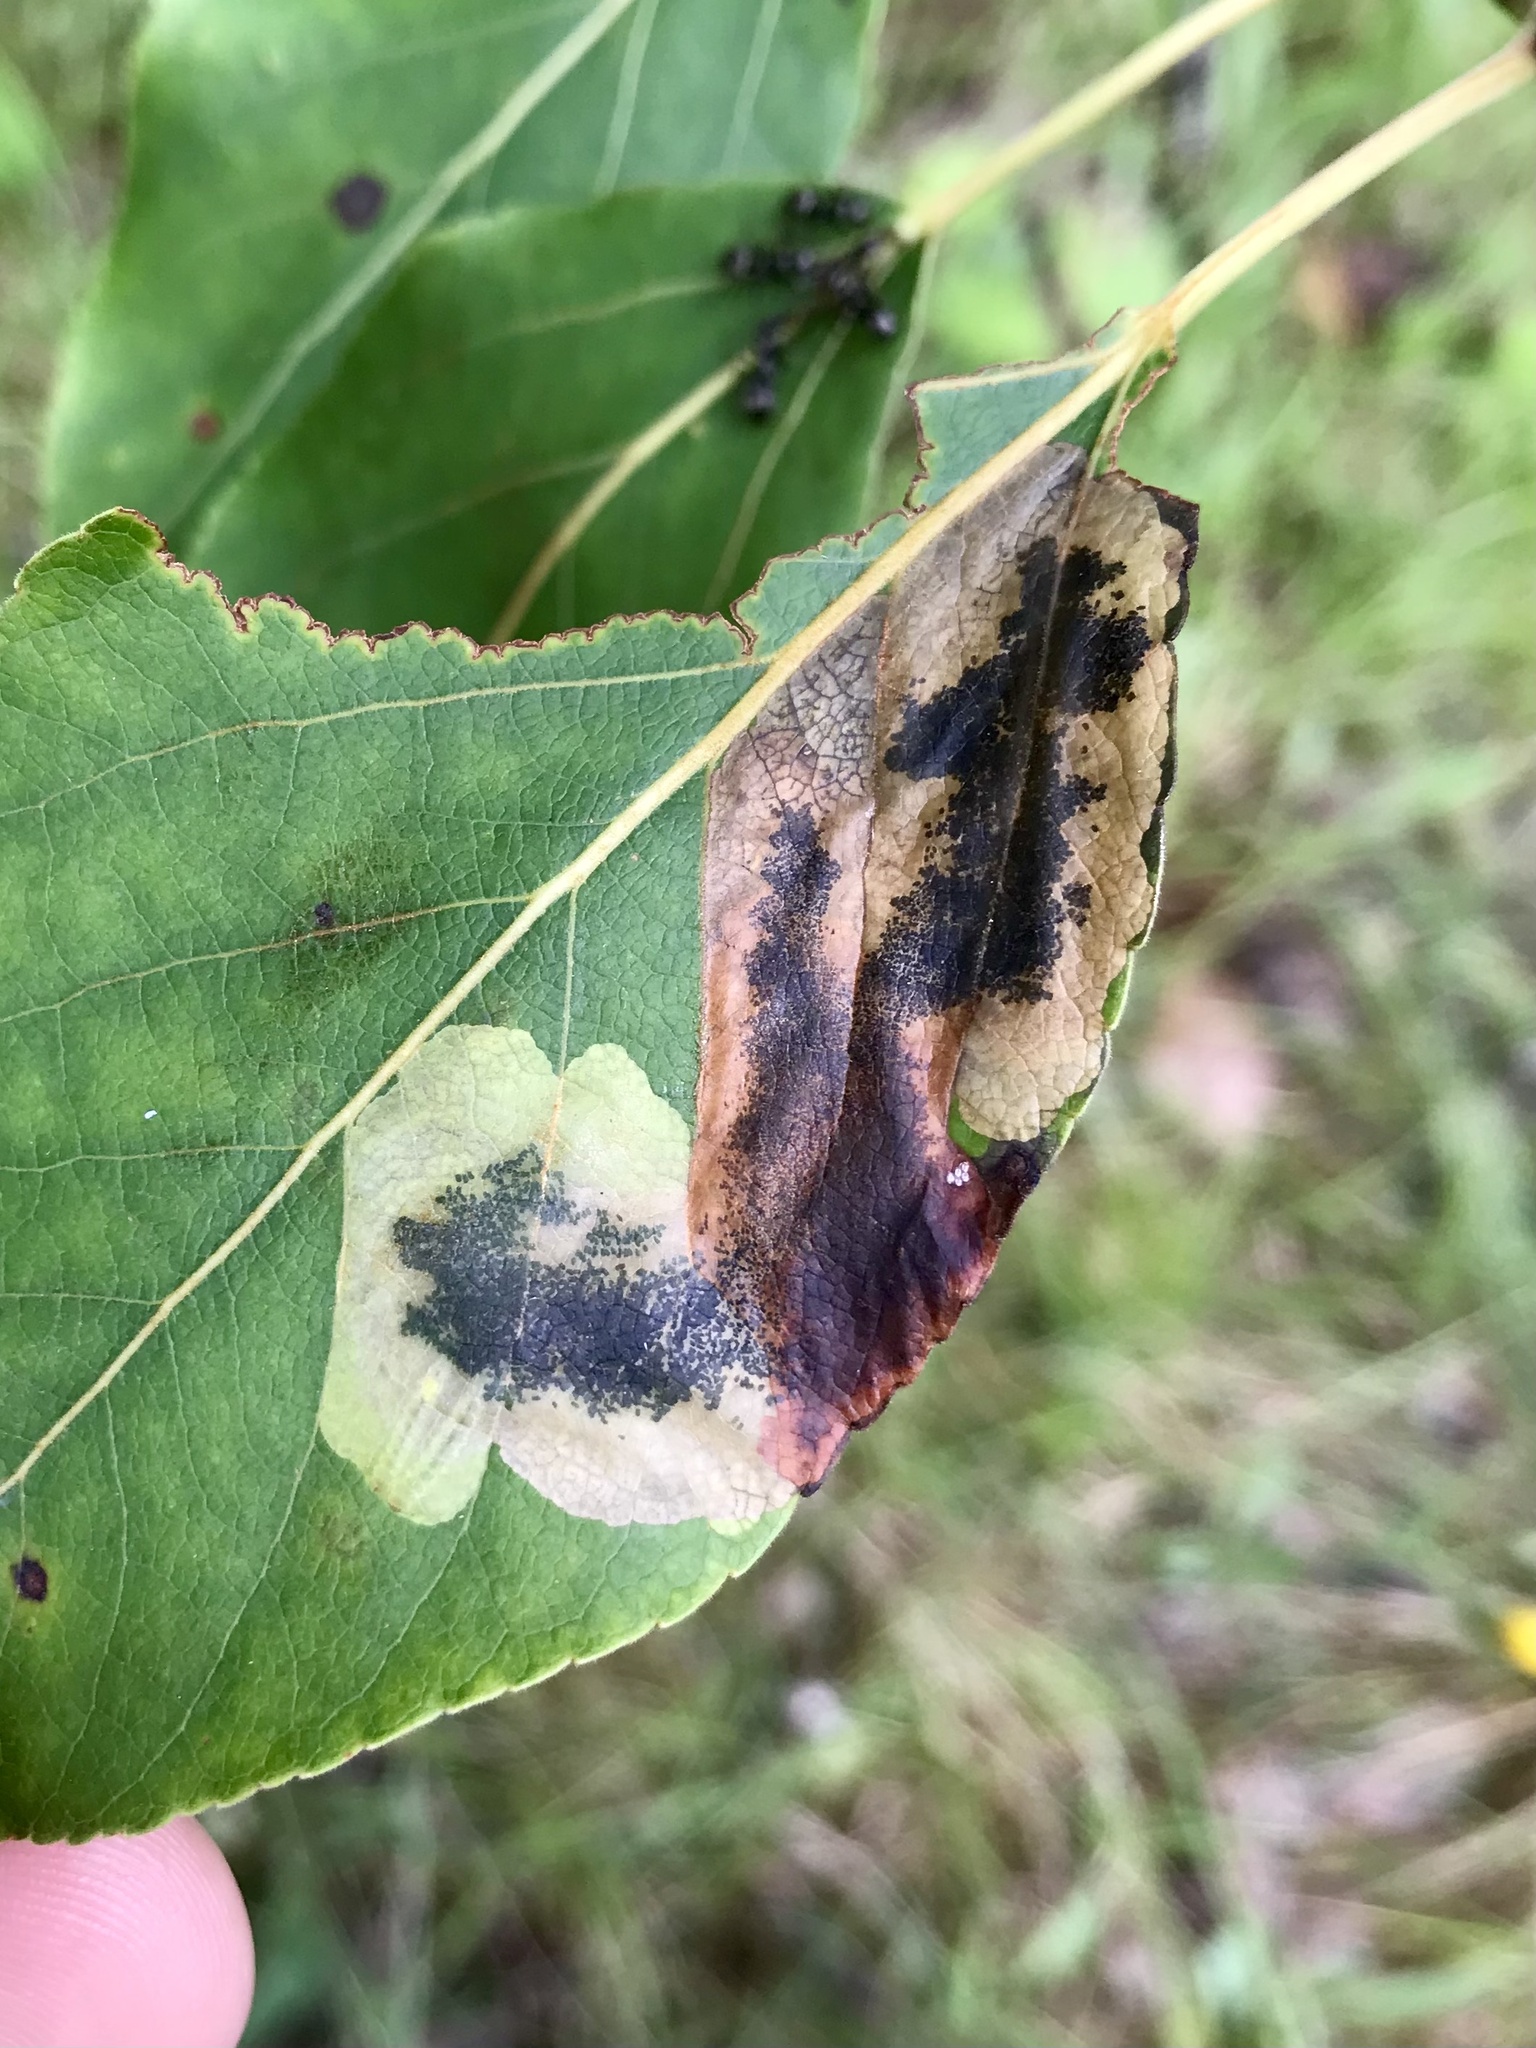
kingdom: Animalia
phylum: Arthropoda
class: Insecta
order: Lepidoptera
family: Lyonetiidae
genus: Leucoptera
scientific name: Leucoptera Paraleucoptera albella
